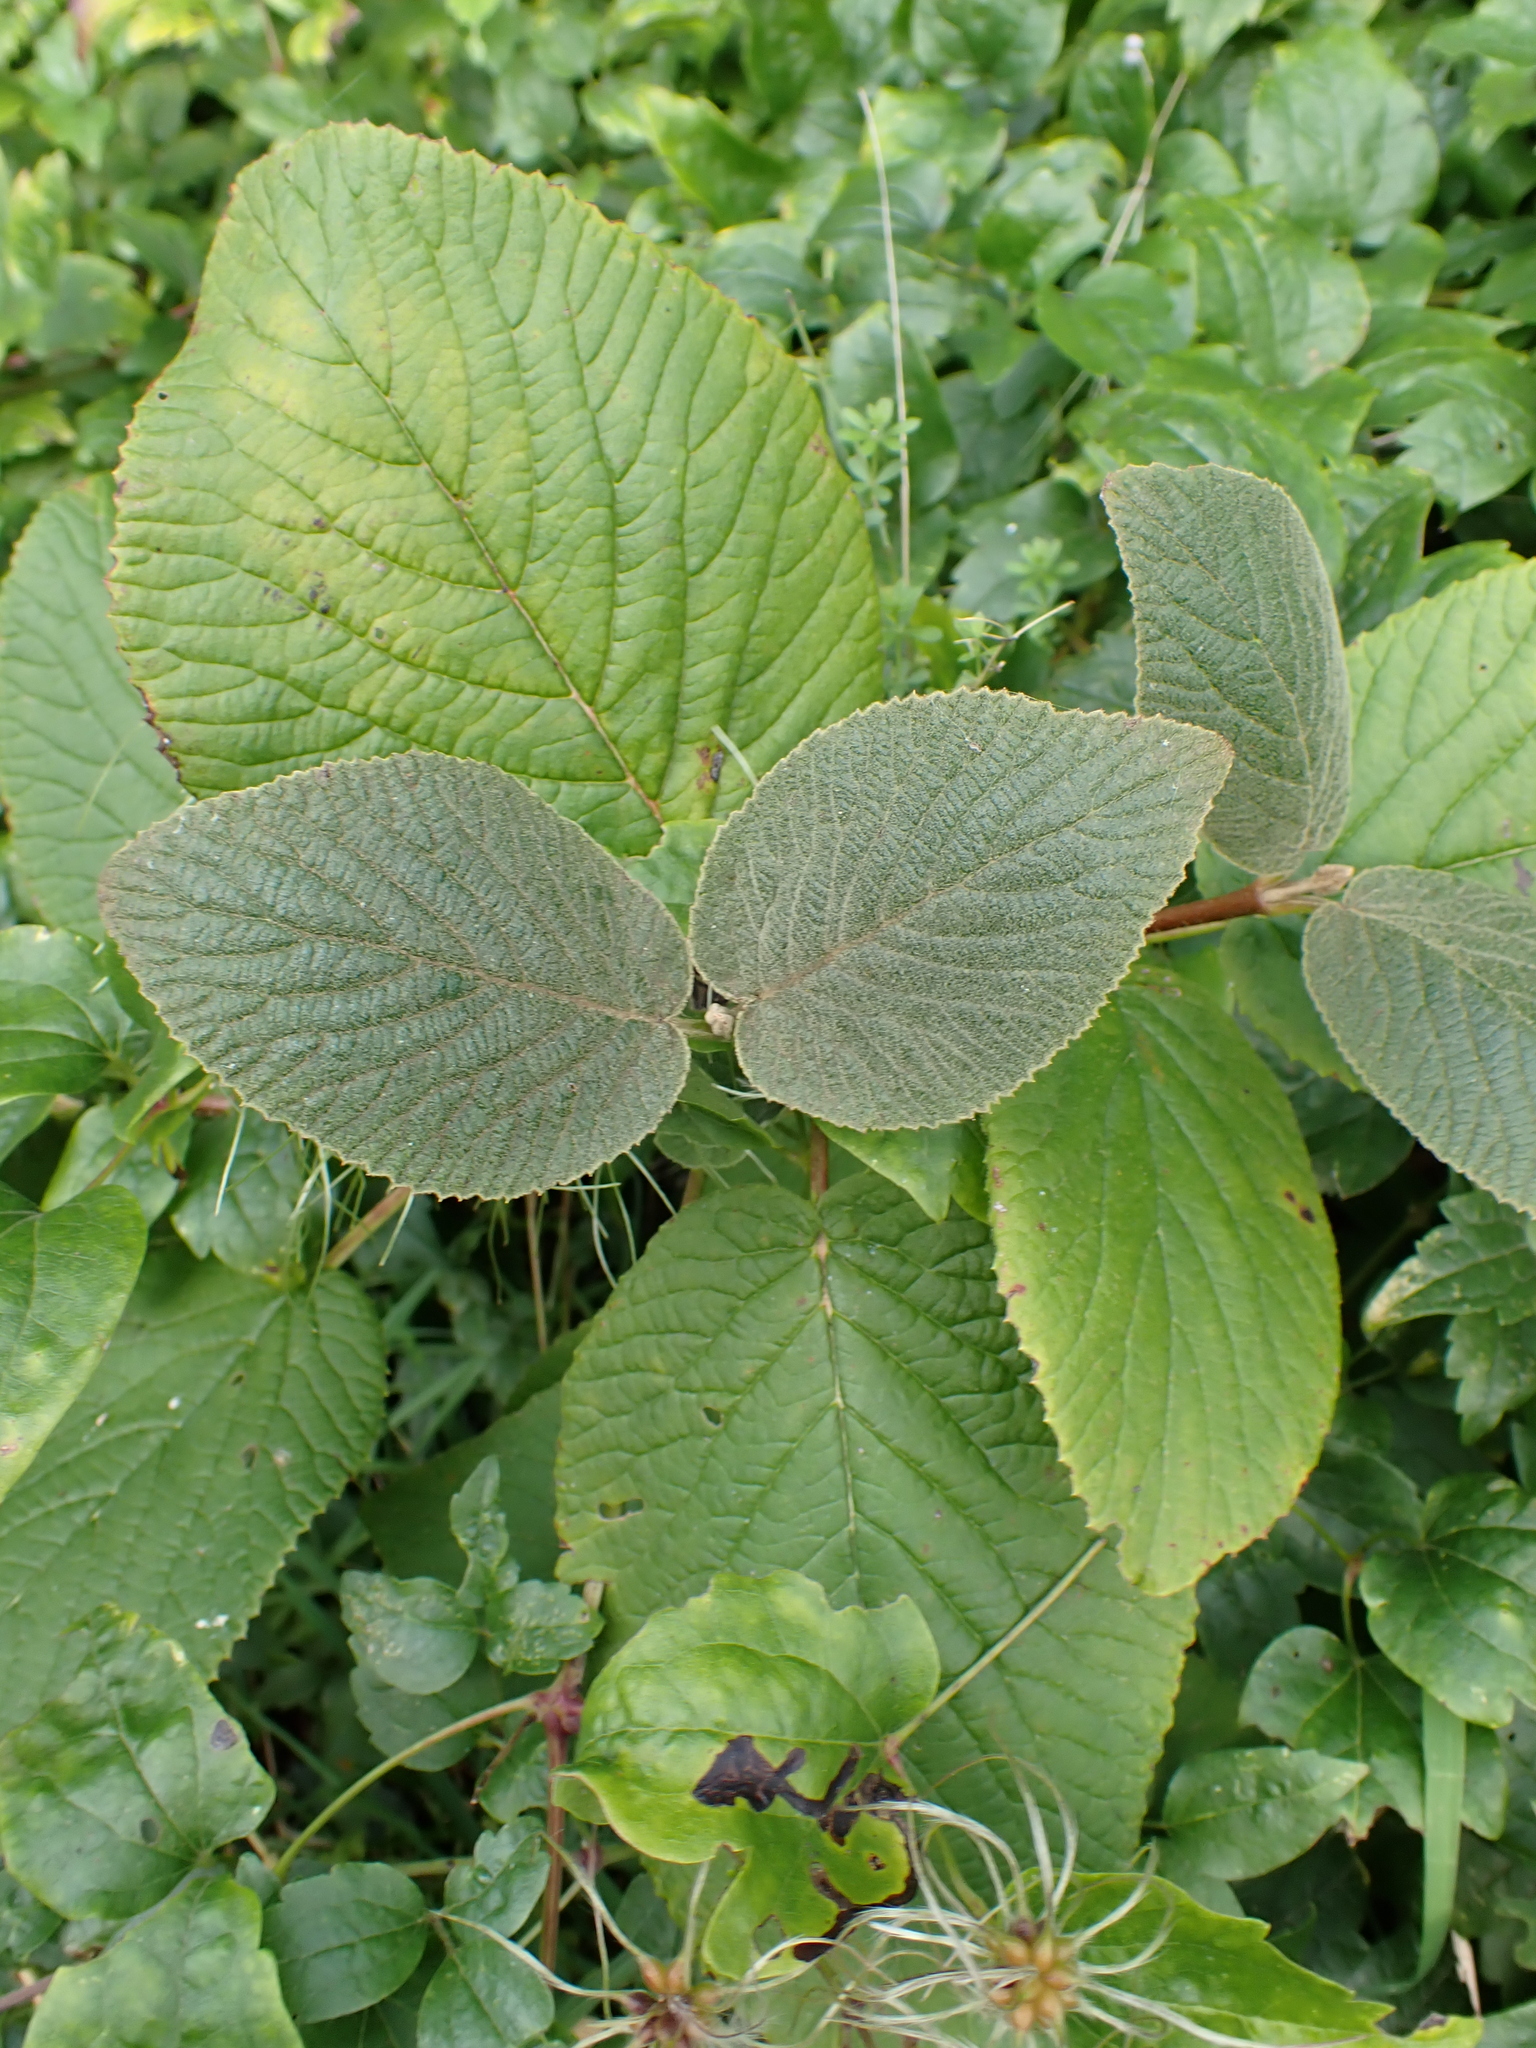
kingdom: Plantae
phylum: Tracheophyta
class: Magnoliopsida
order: Dipsacales
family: Viburnaceae
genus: Viburnum
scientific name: Viburnum lantana
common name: Wayfaring tree
